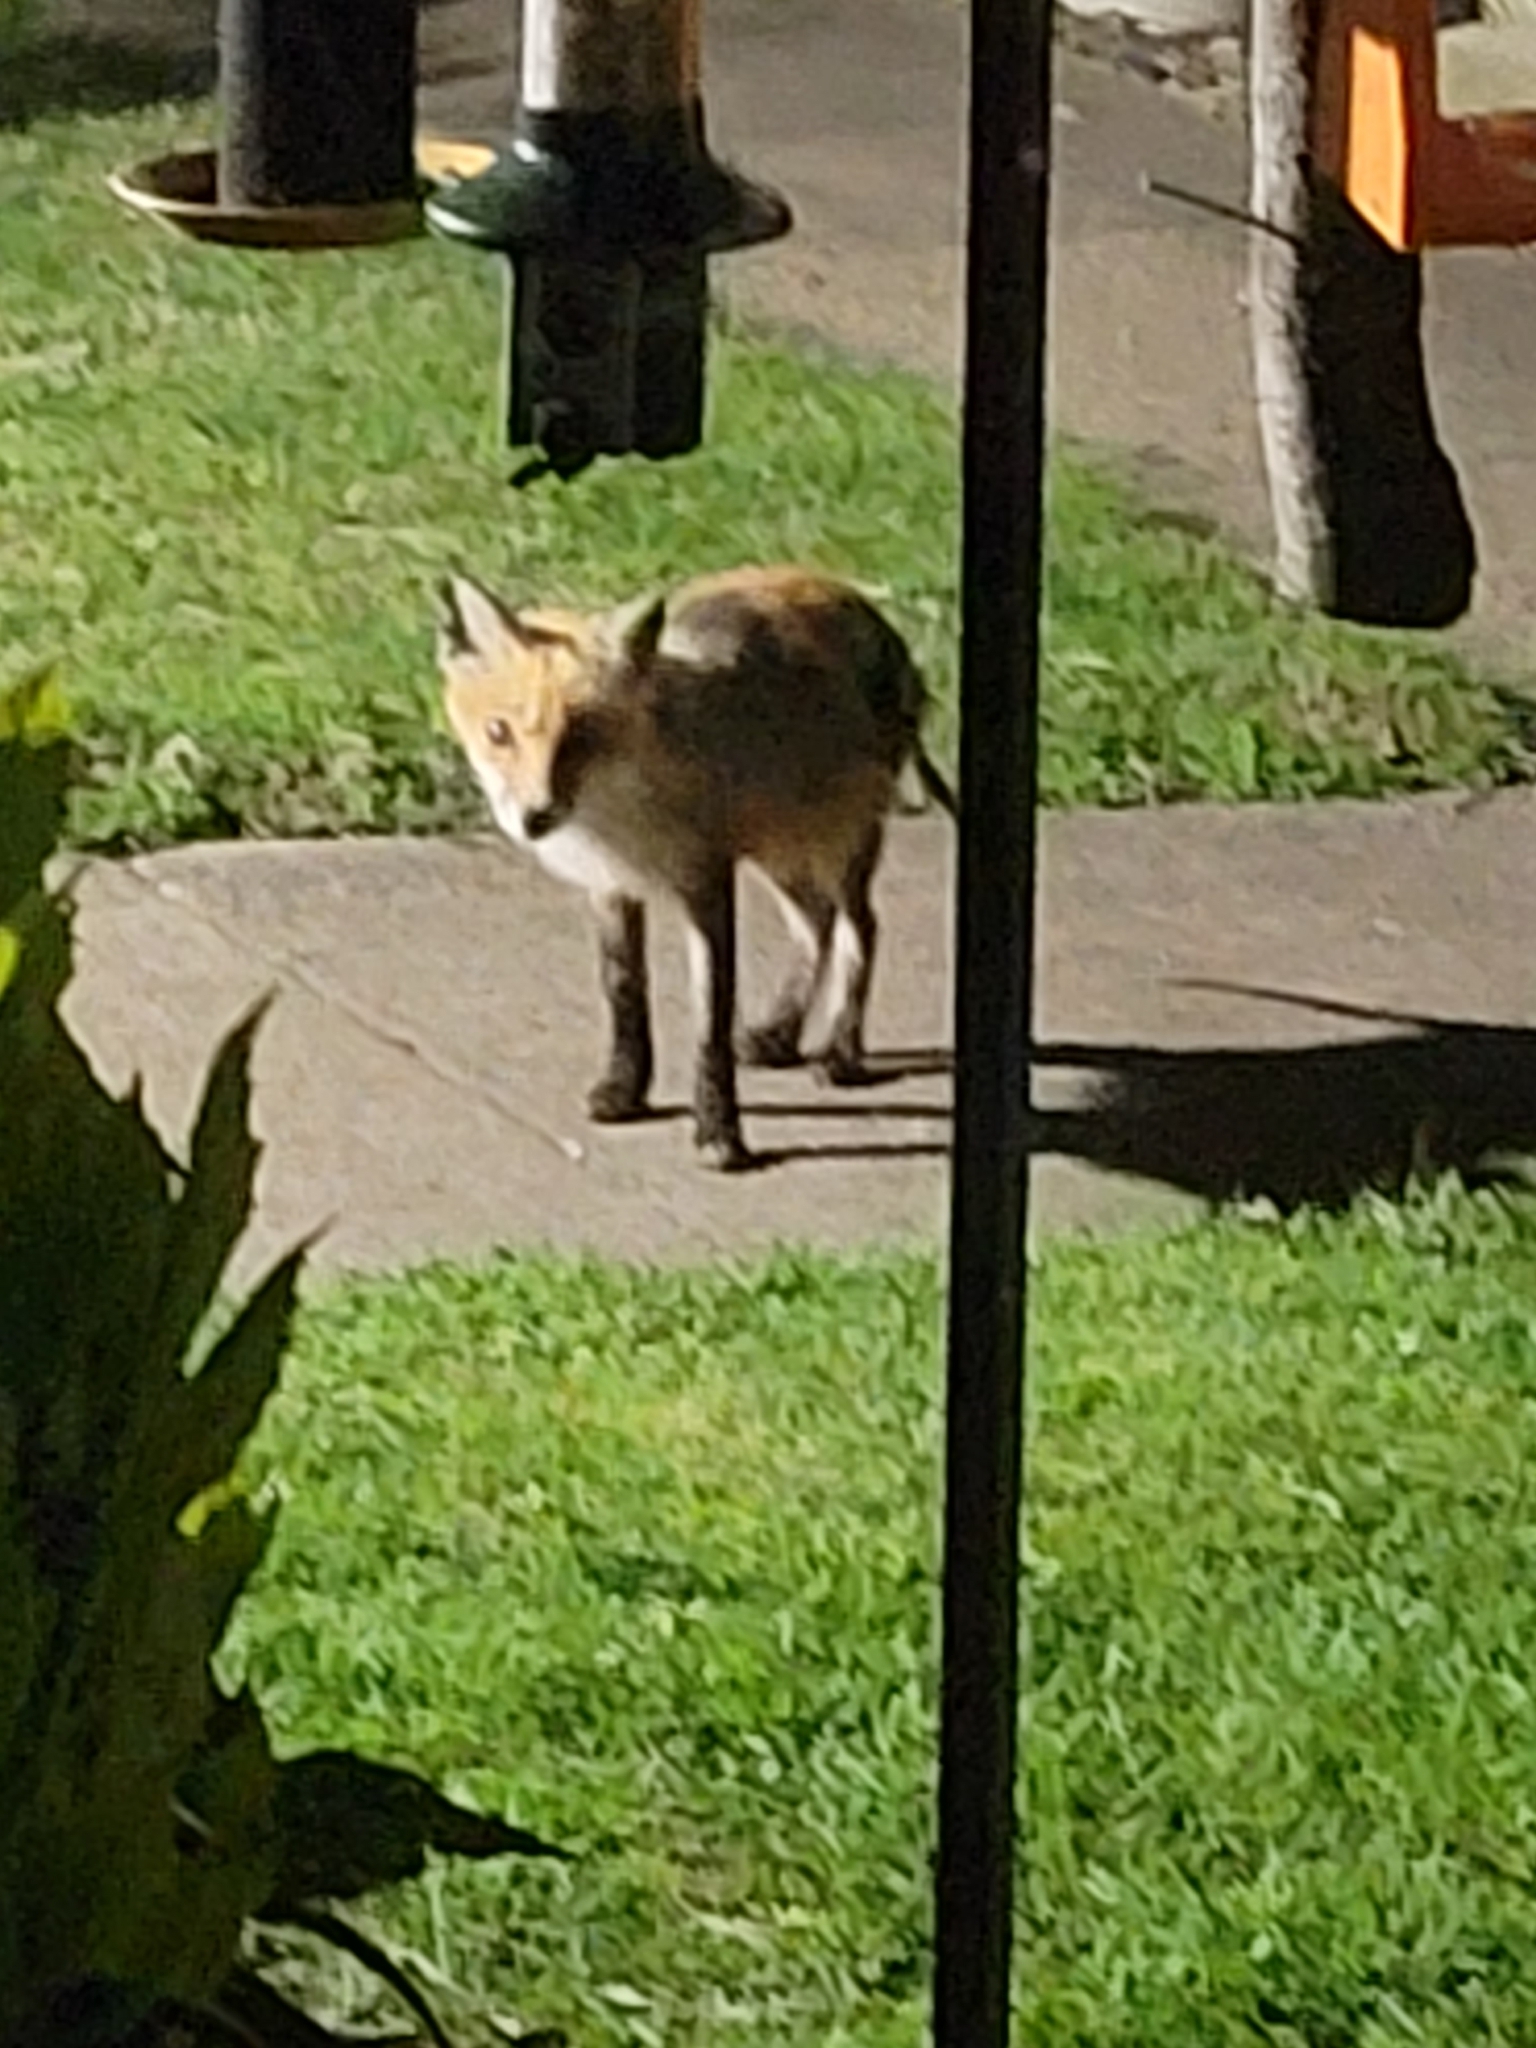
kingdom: Animalia
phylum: Chordata
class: Mammalia
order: Carnivora
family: Canidae
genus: Vulpes
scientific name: Vulpes vulpes
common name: Red fox
